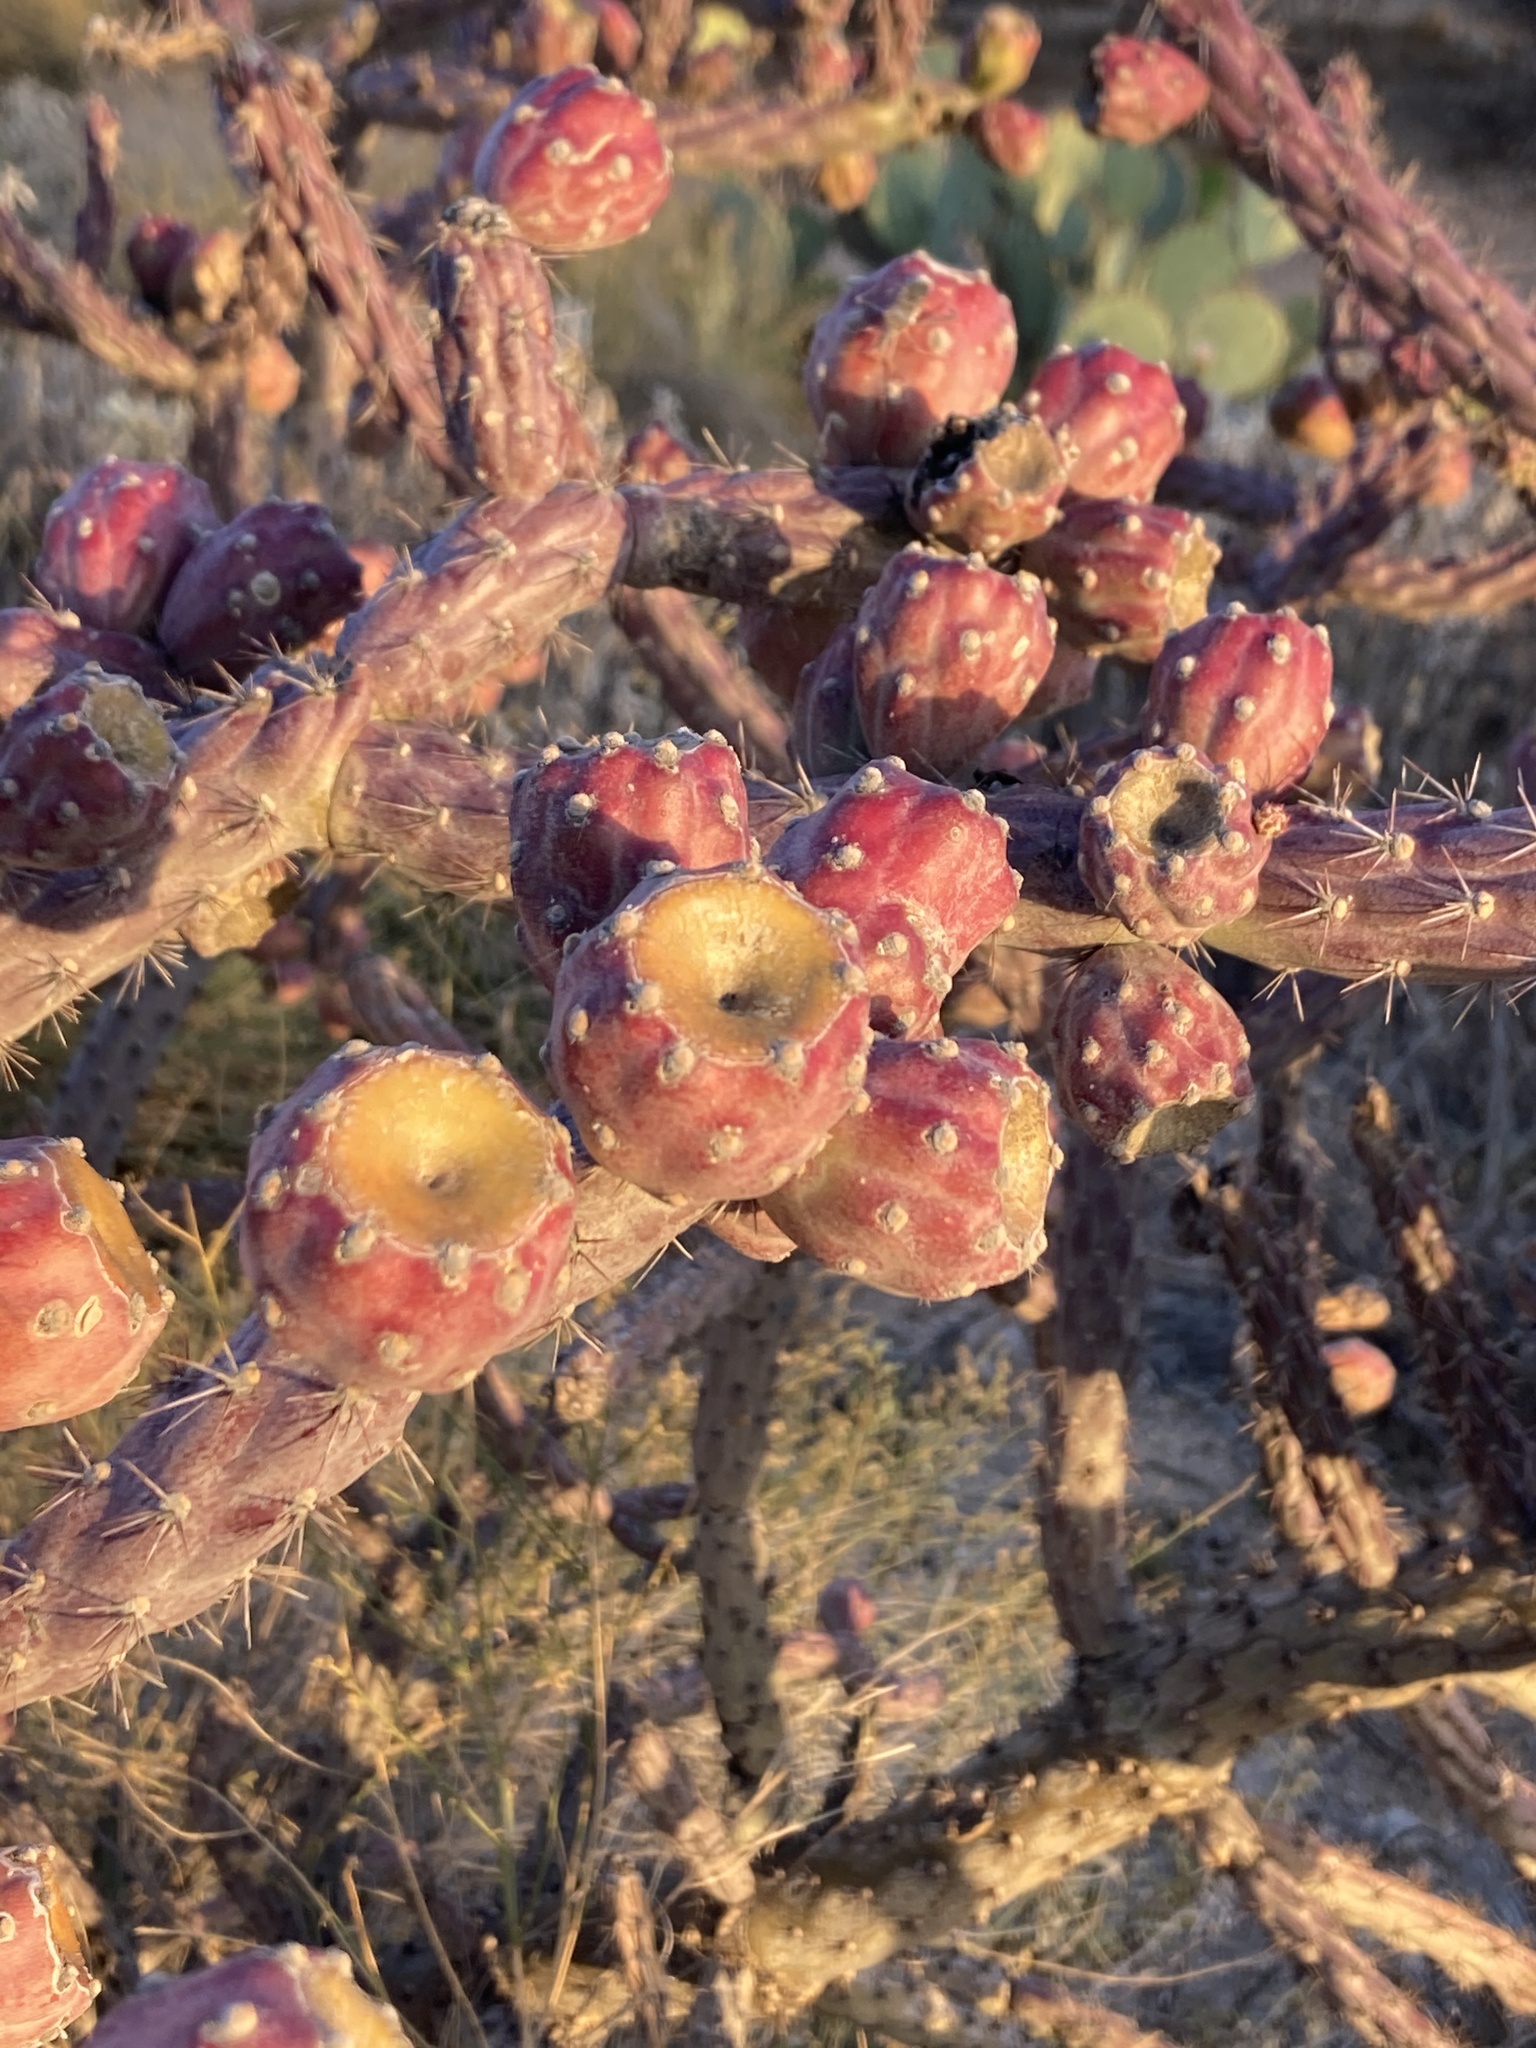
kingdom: Plantae
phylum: Tracheophyta
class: Magnoliopsida
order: Caryophyllales
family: Cactaceae
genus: Cylindropuntia
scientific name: Cylindropuntia thurberi
